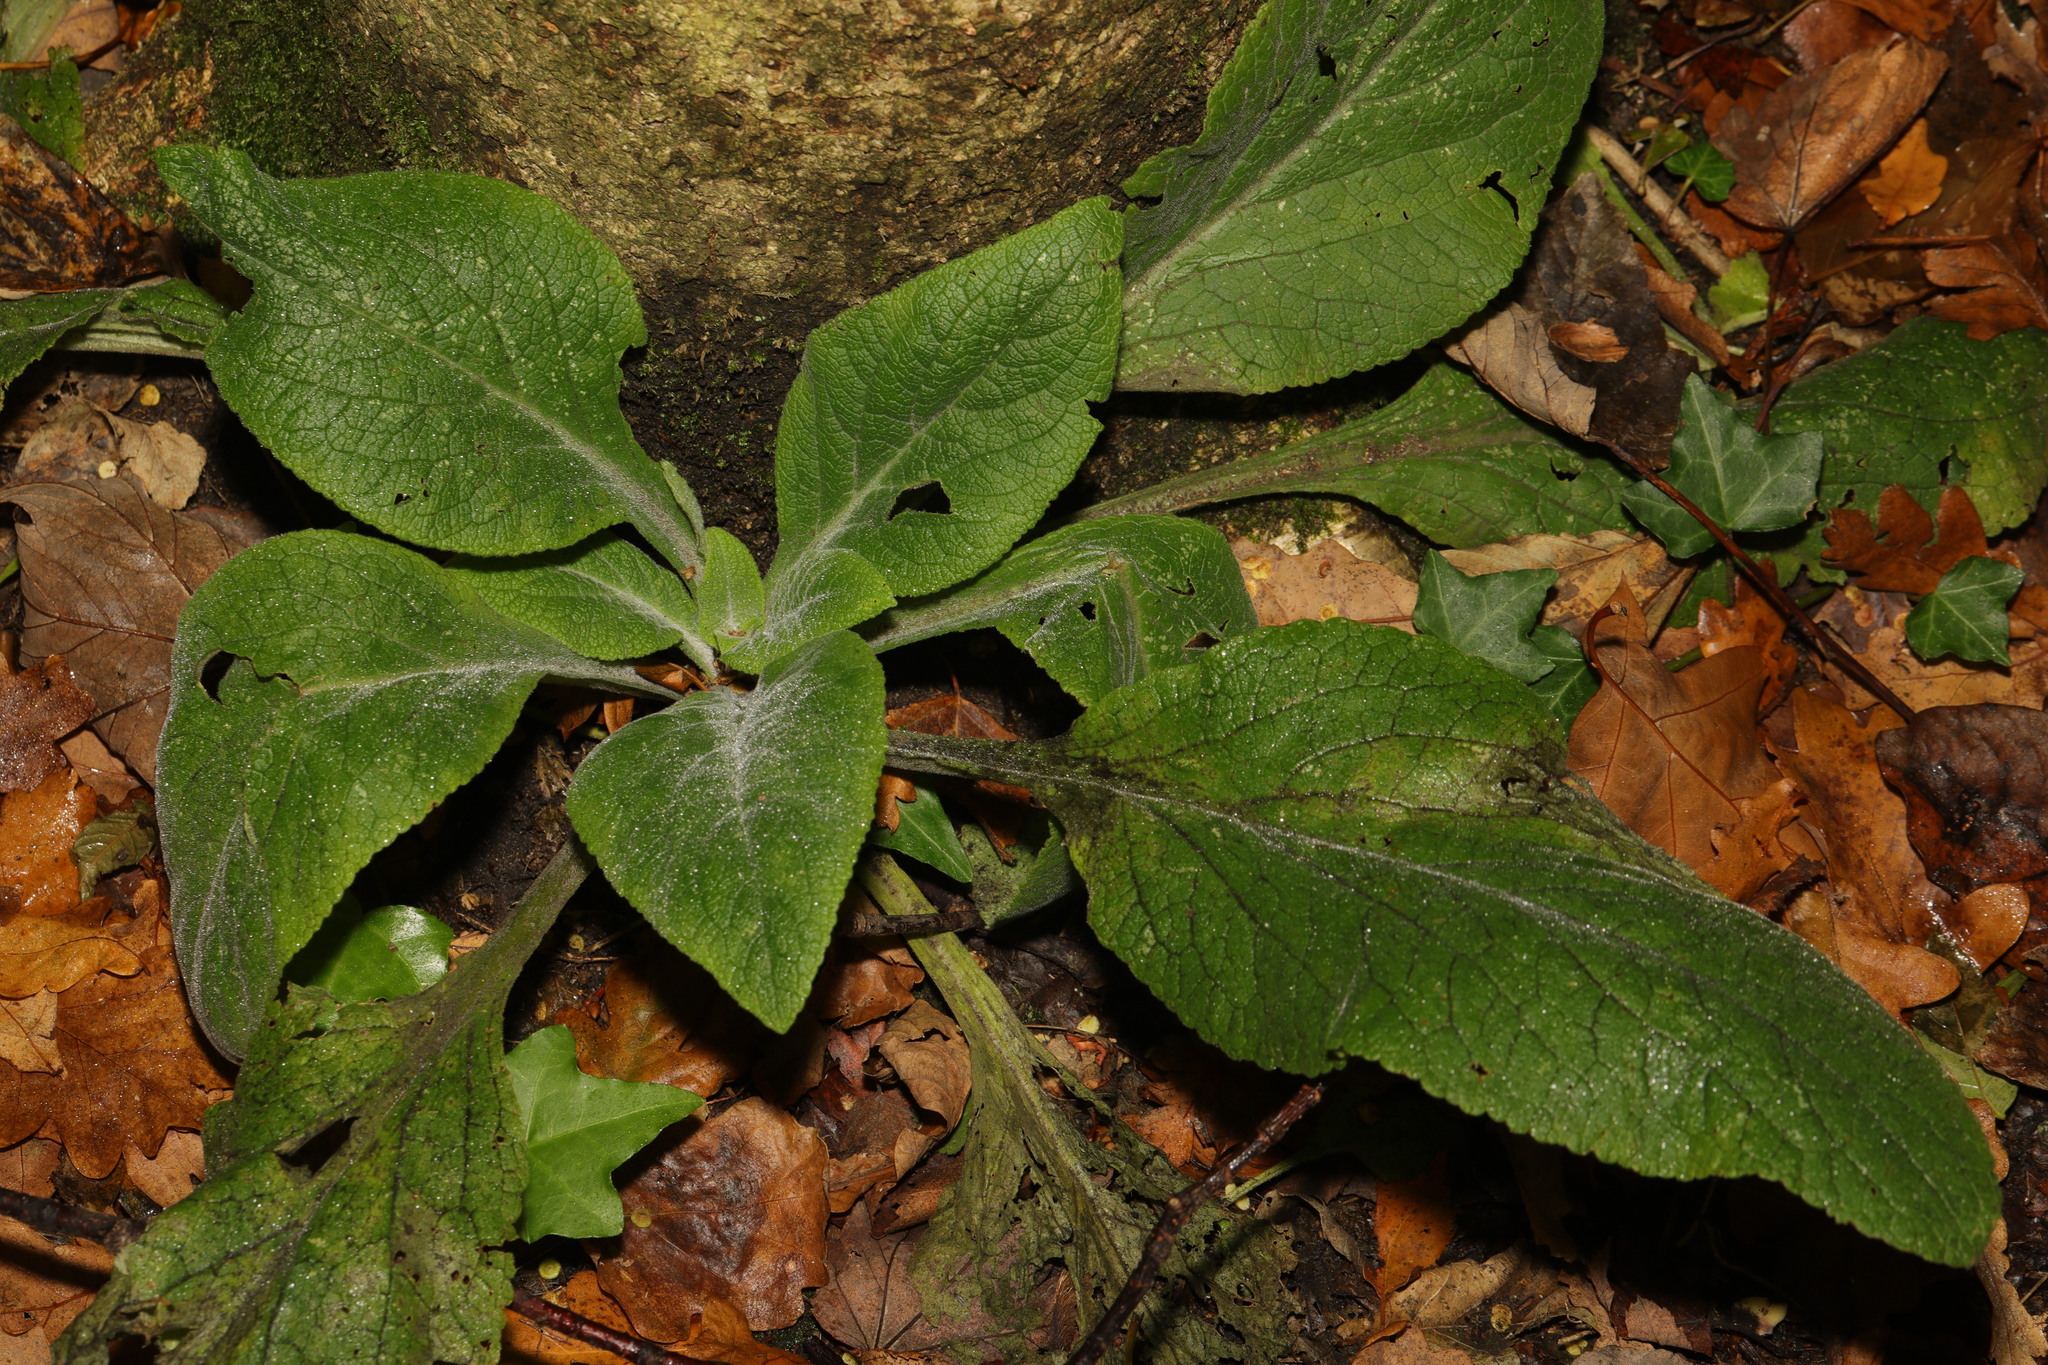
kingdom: Plantae
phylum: Tracheophyta
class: Magnoliopsida
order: Lamiales
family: Plantaginaceae
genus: Digitalis
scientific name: Digitalis purpurea
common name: Foxglove
